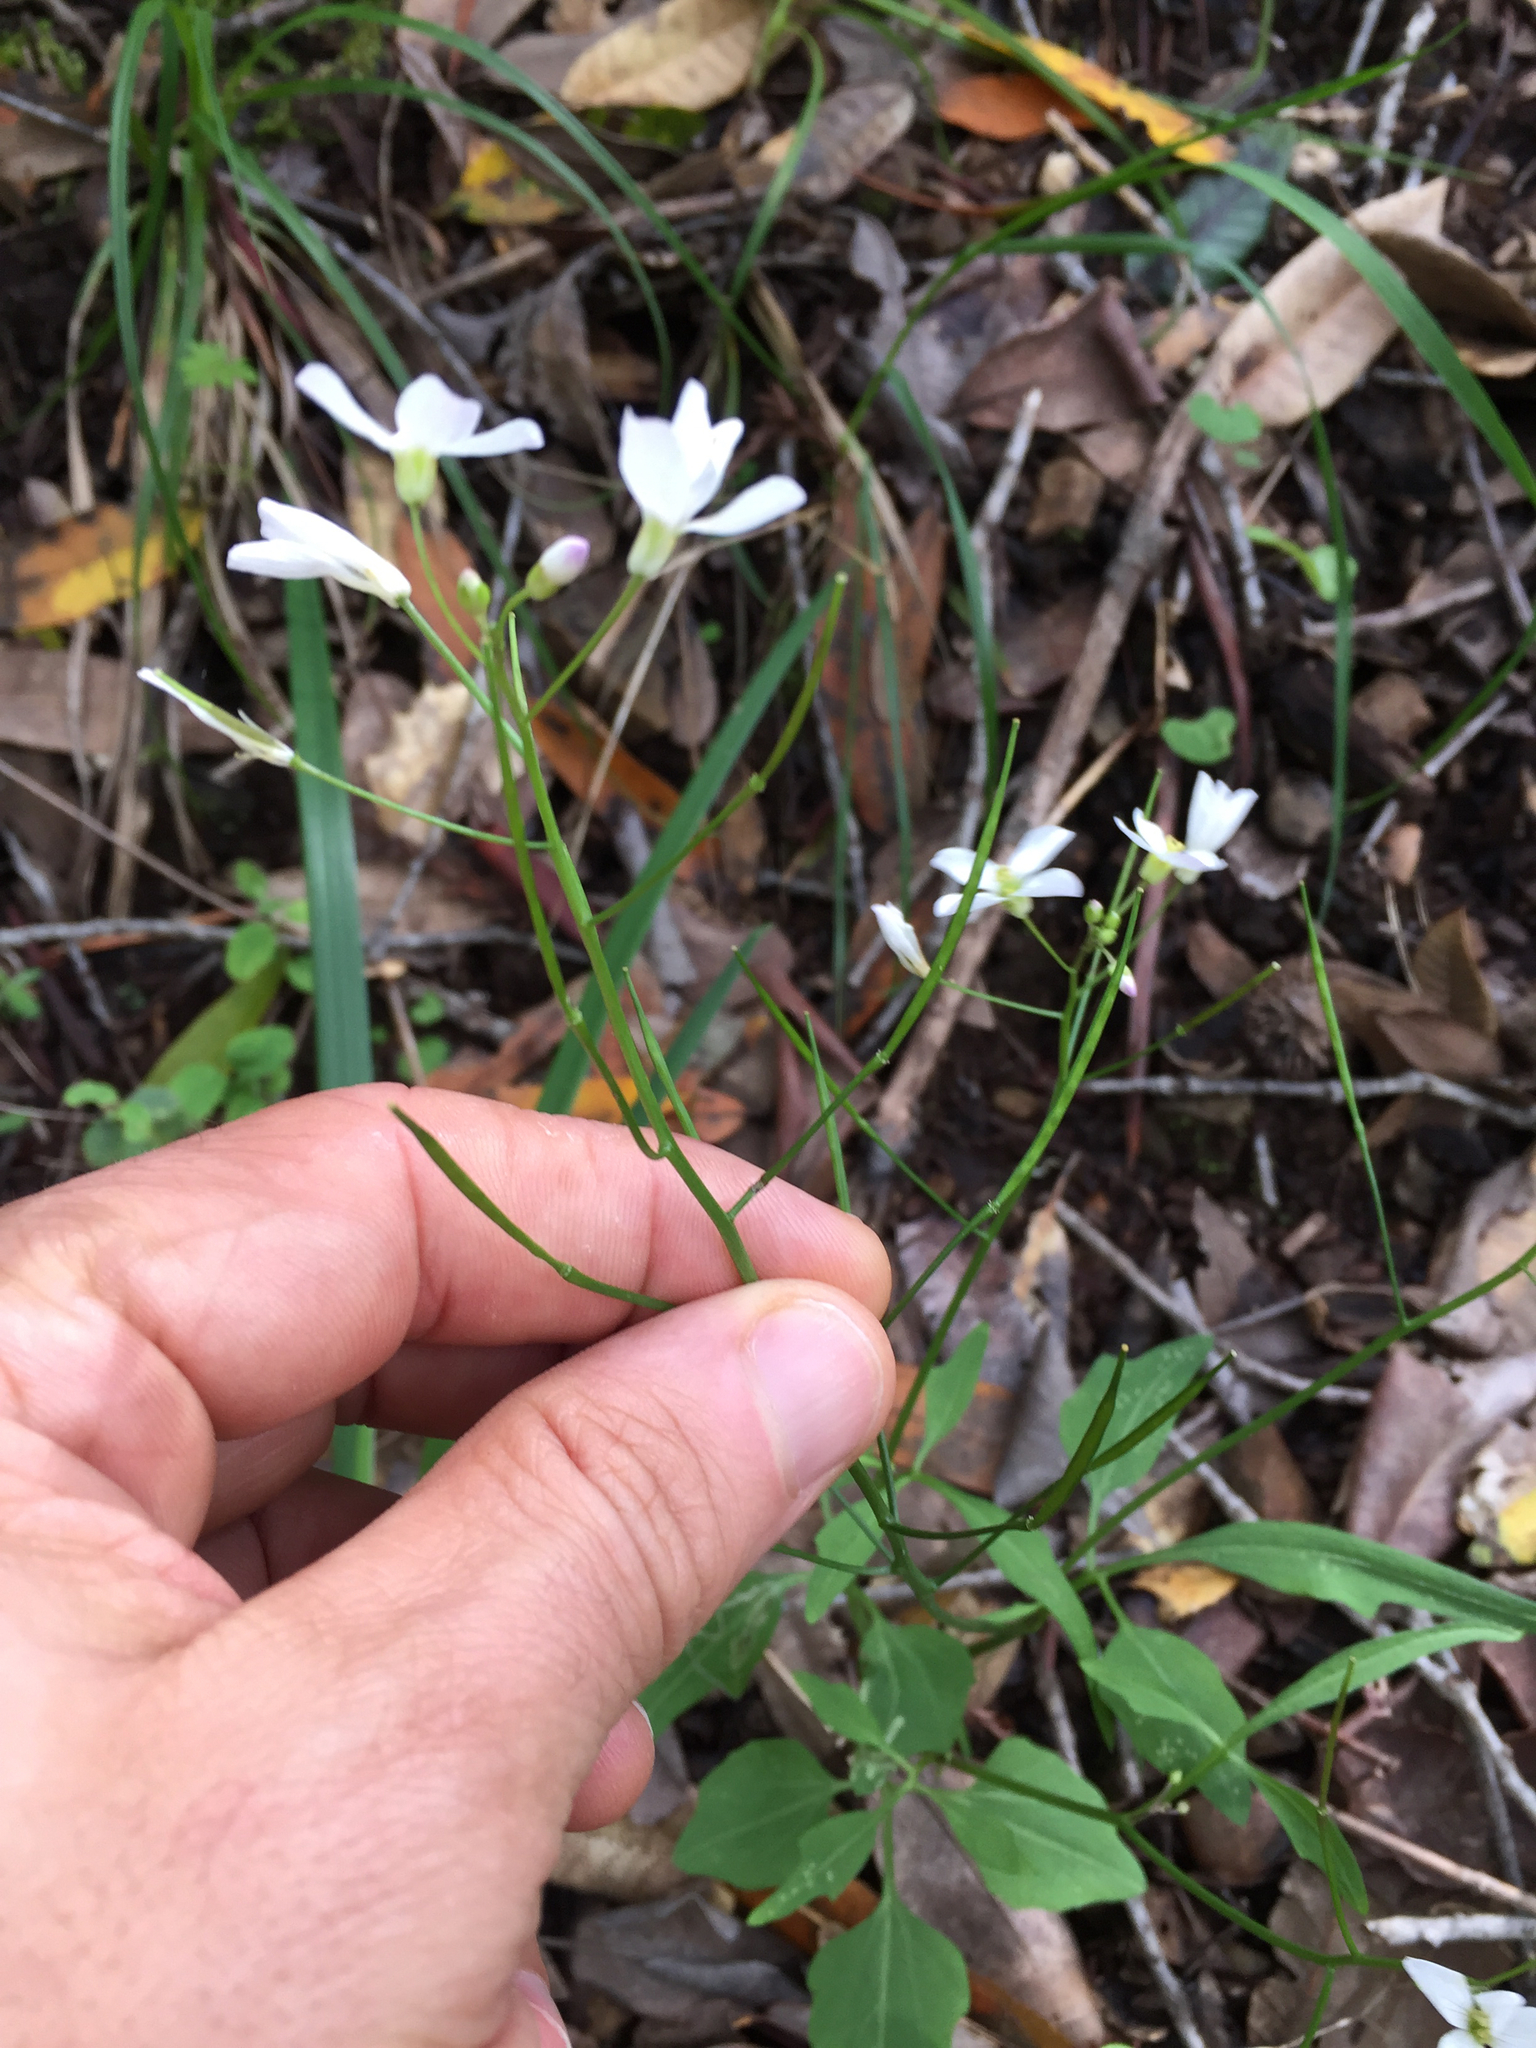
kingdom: Plantae
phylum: Tracheophyta
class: Magnoliopsida
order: Brassicales
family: Brassicaceae
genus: Cardamine
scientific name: Cardamine californica
